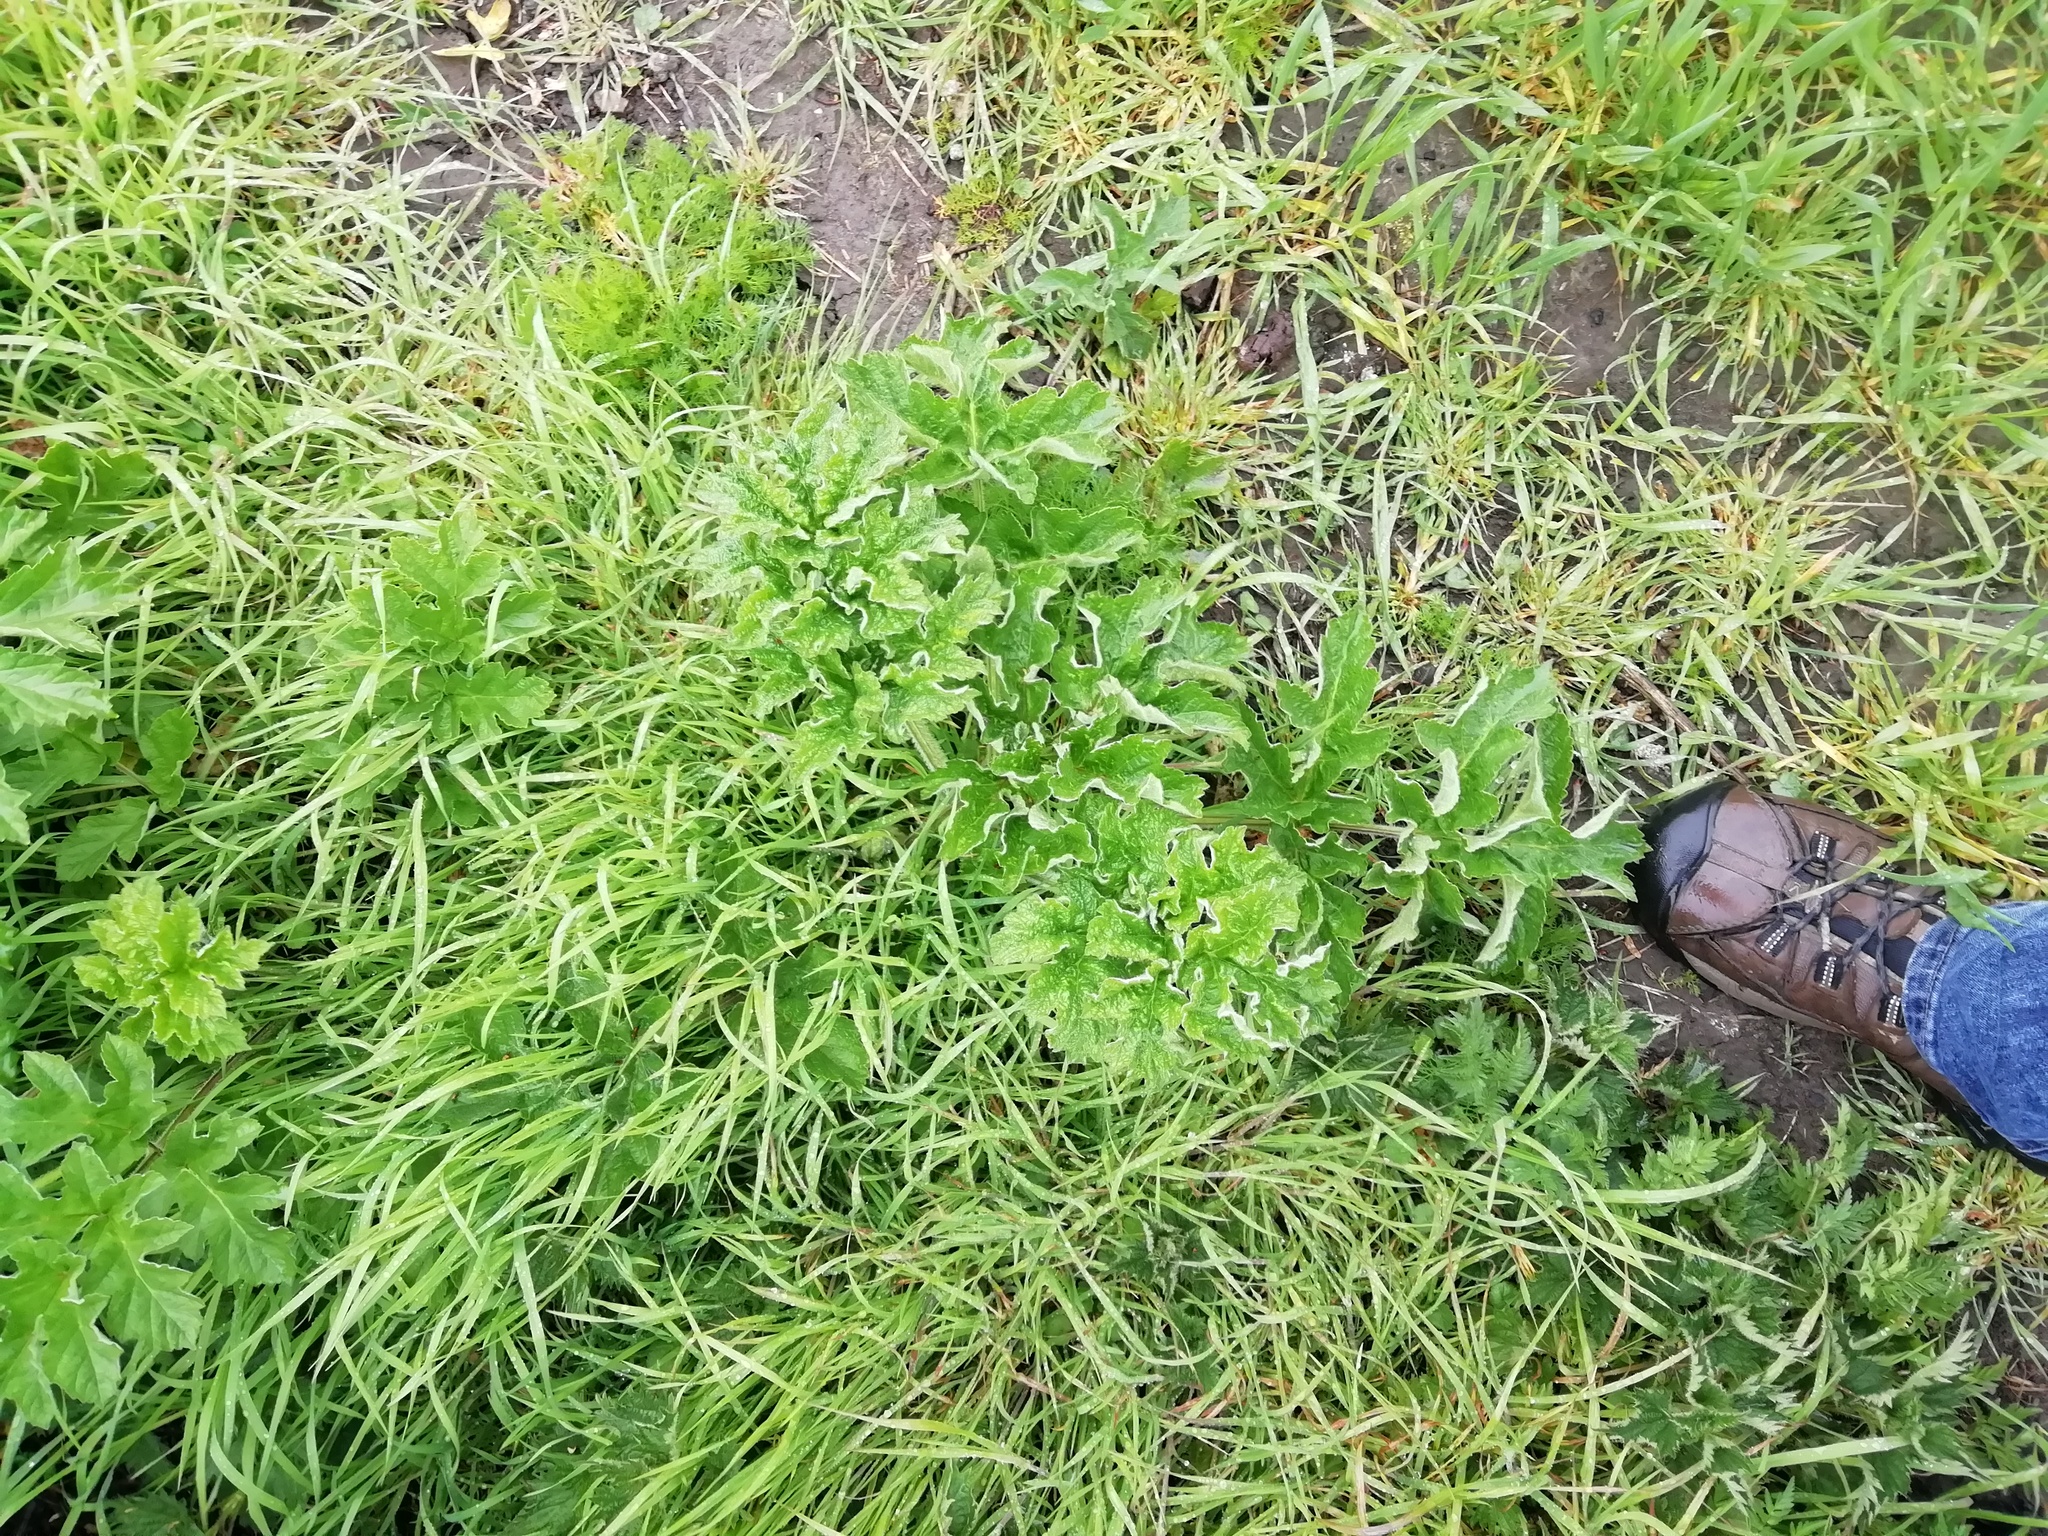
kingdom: Plantae
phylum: Tracheophyta
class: Magnoliopsida
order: Apiales
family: Apiaceae
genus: Heracleum
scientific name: Heracleum sphondylium
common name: Hogweed
